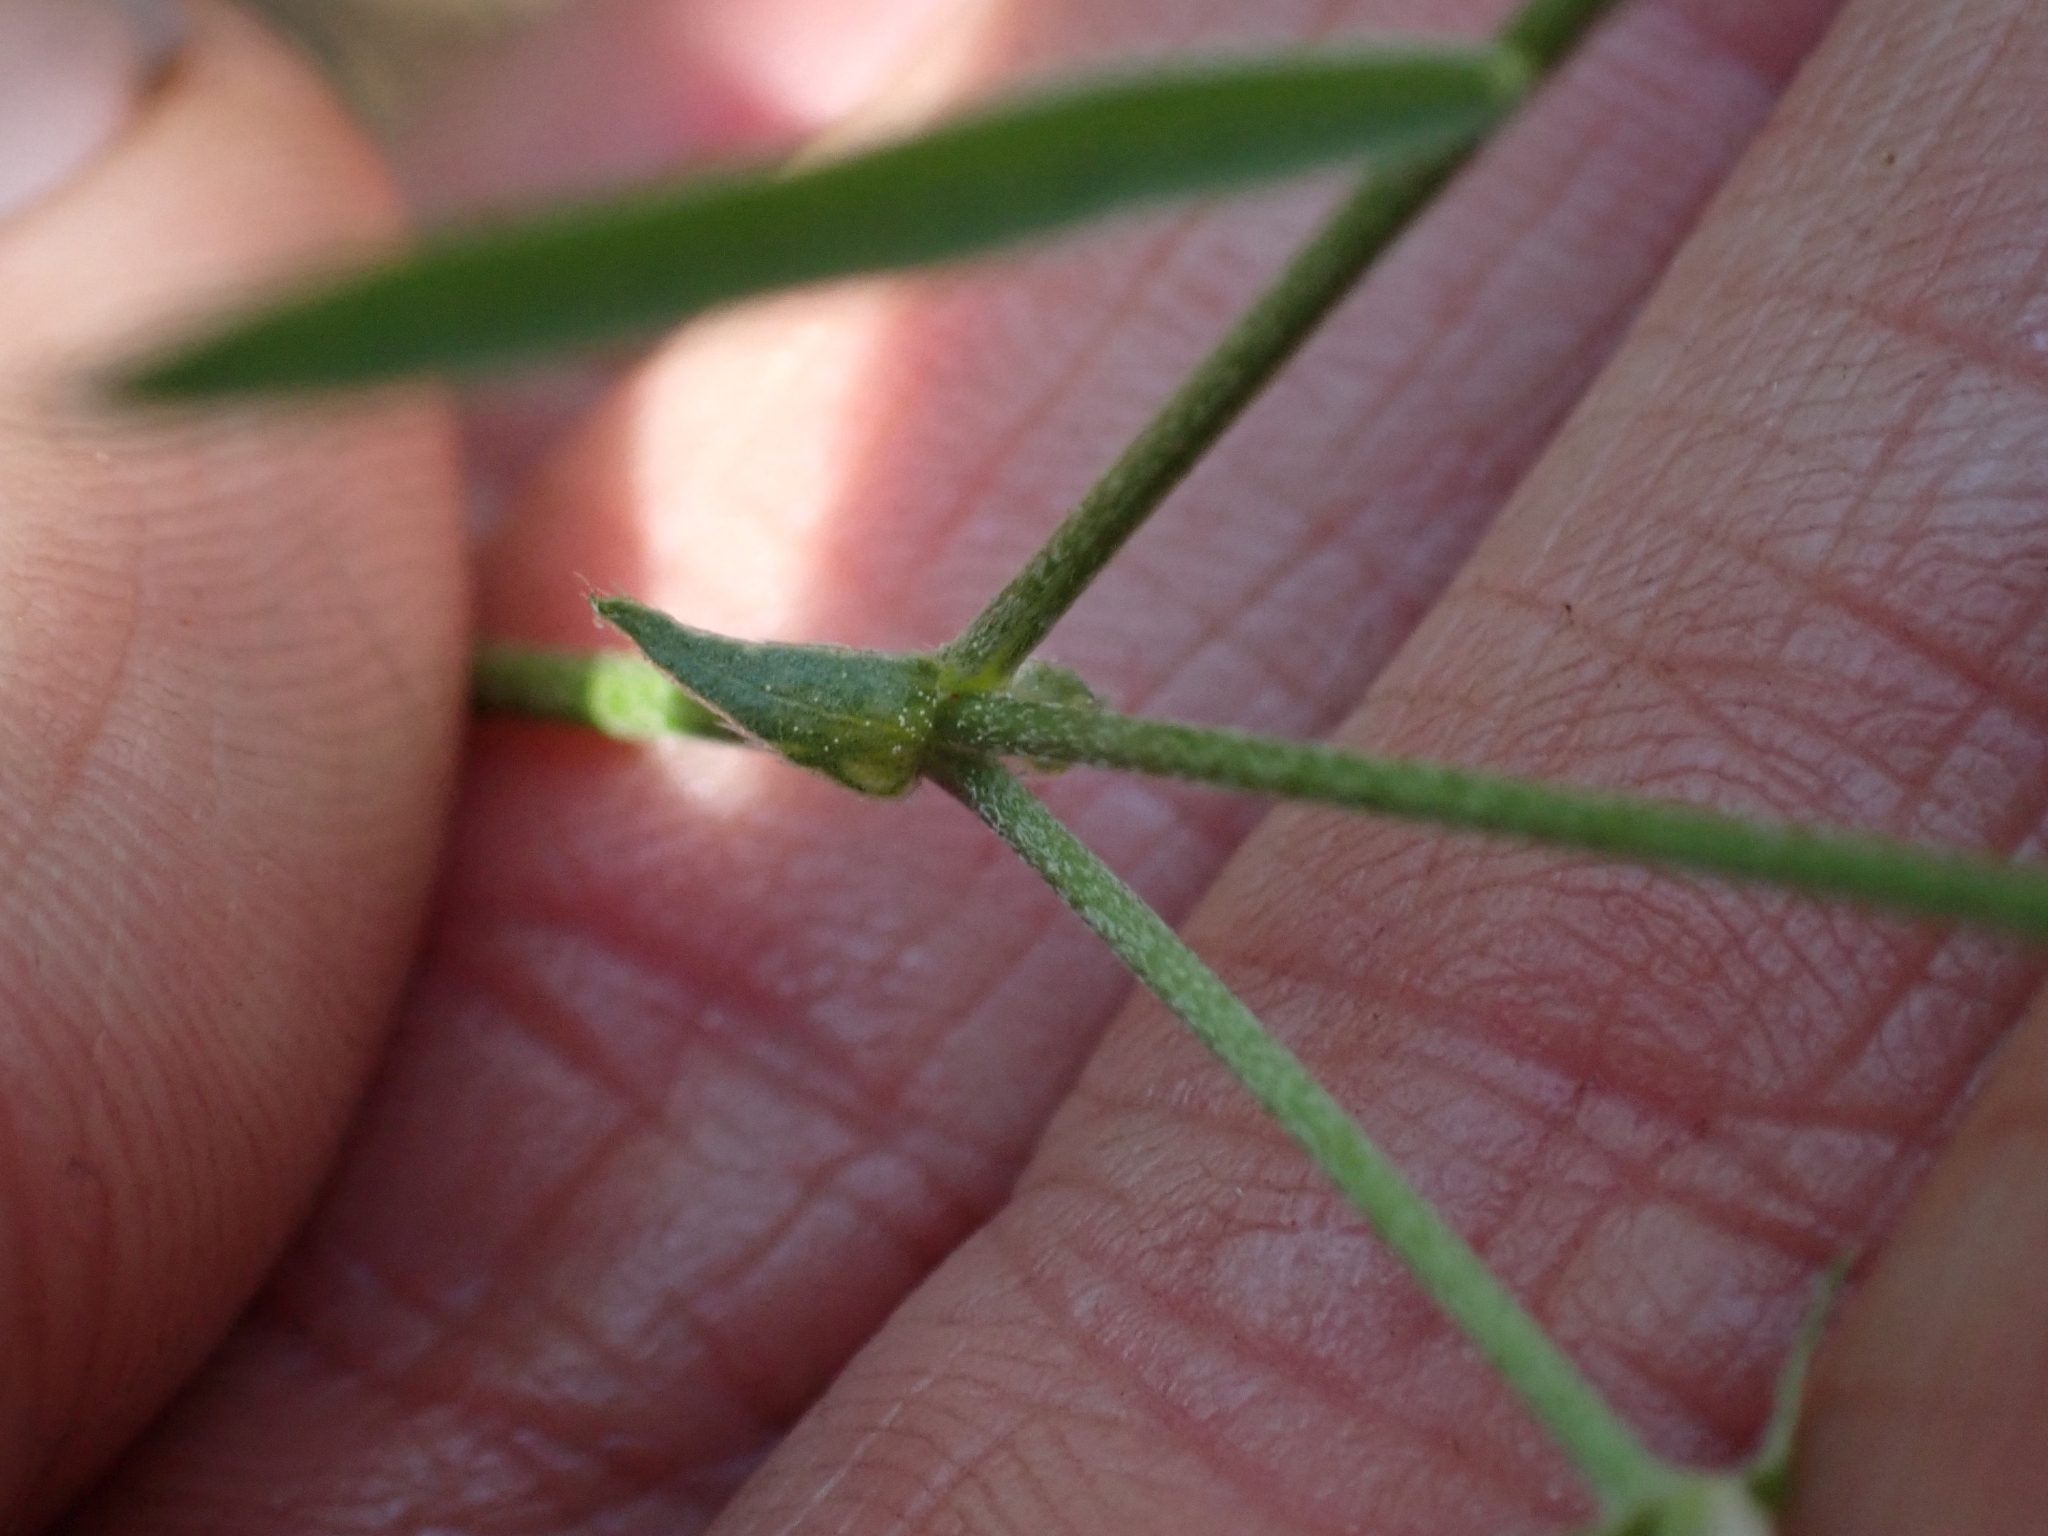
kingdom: Plantae
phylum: Tracheophyta
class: Magnoliopsida
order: Fabales
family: Fabaceae
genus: Astragalus
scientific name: Astragalus miser
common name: Timber milkvetch
